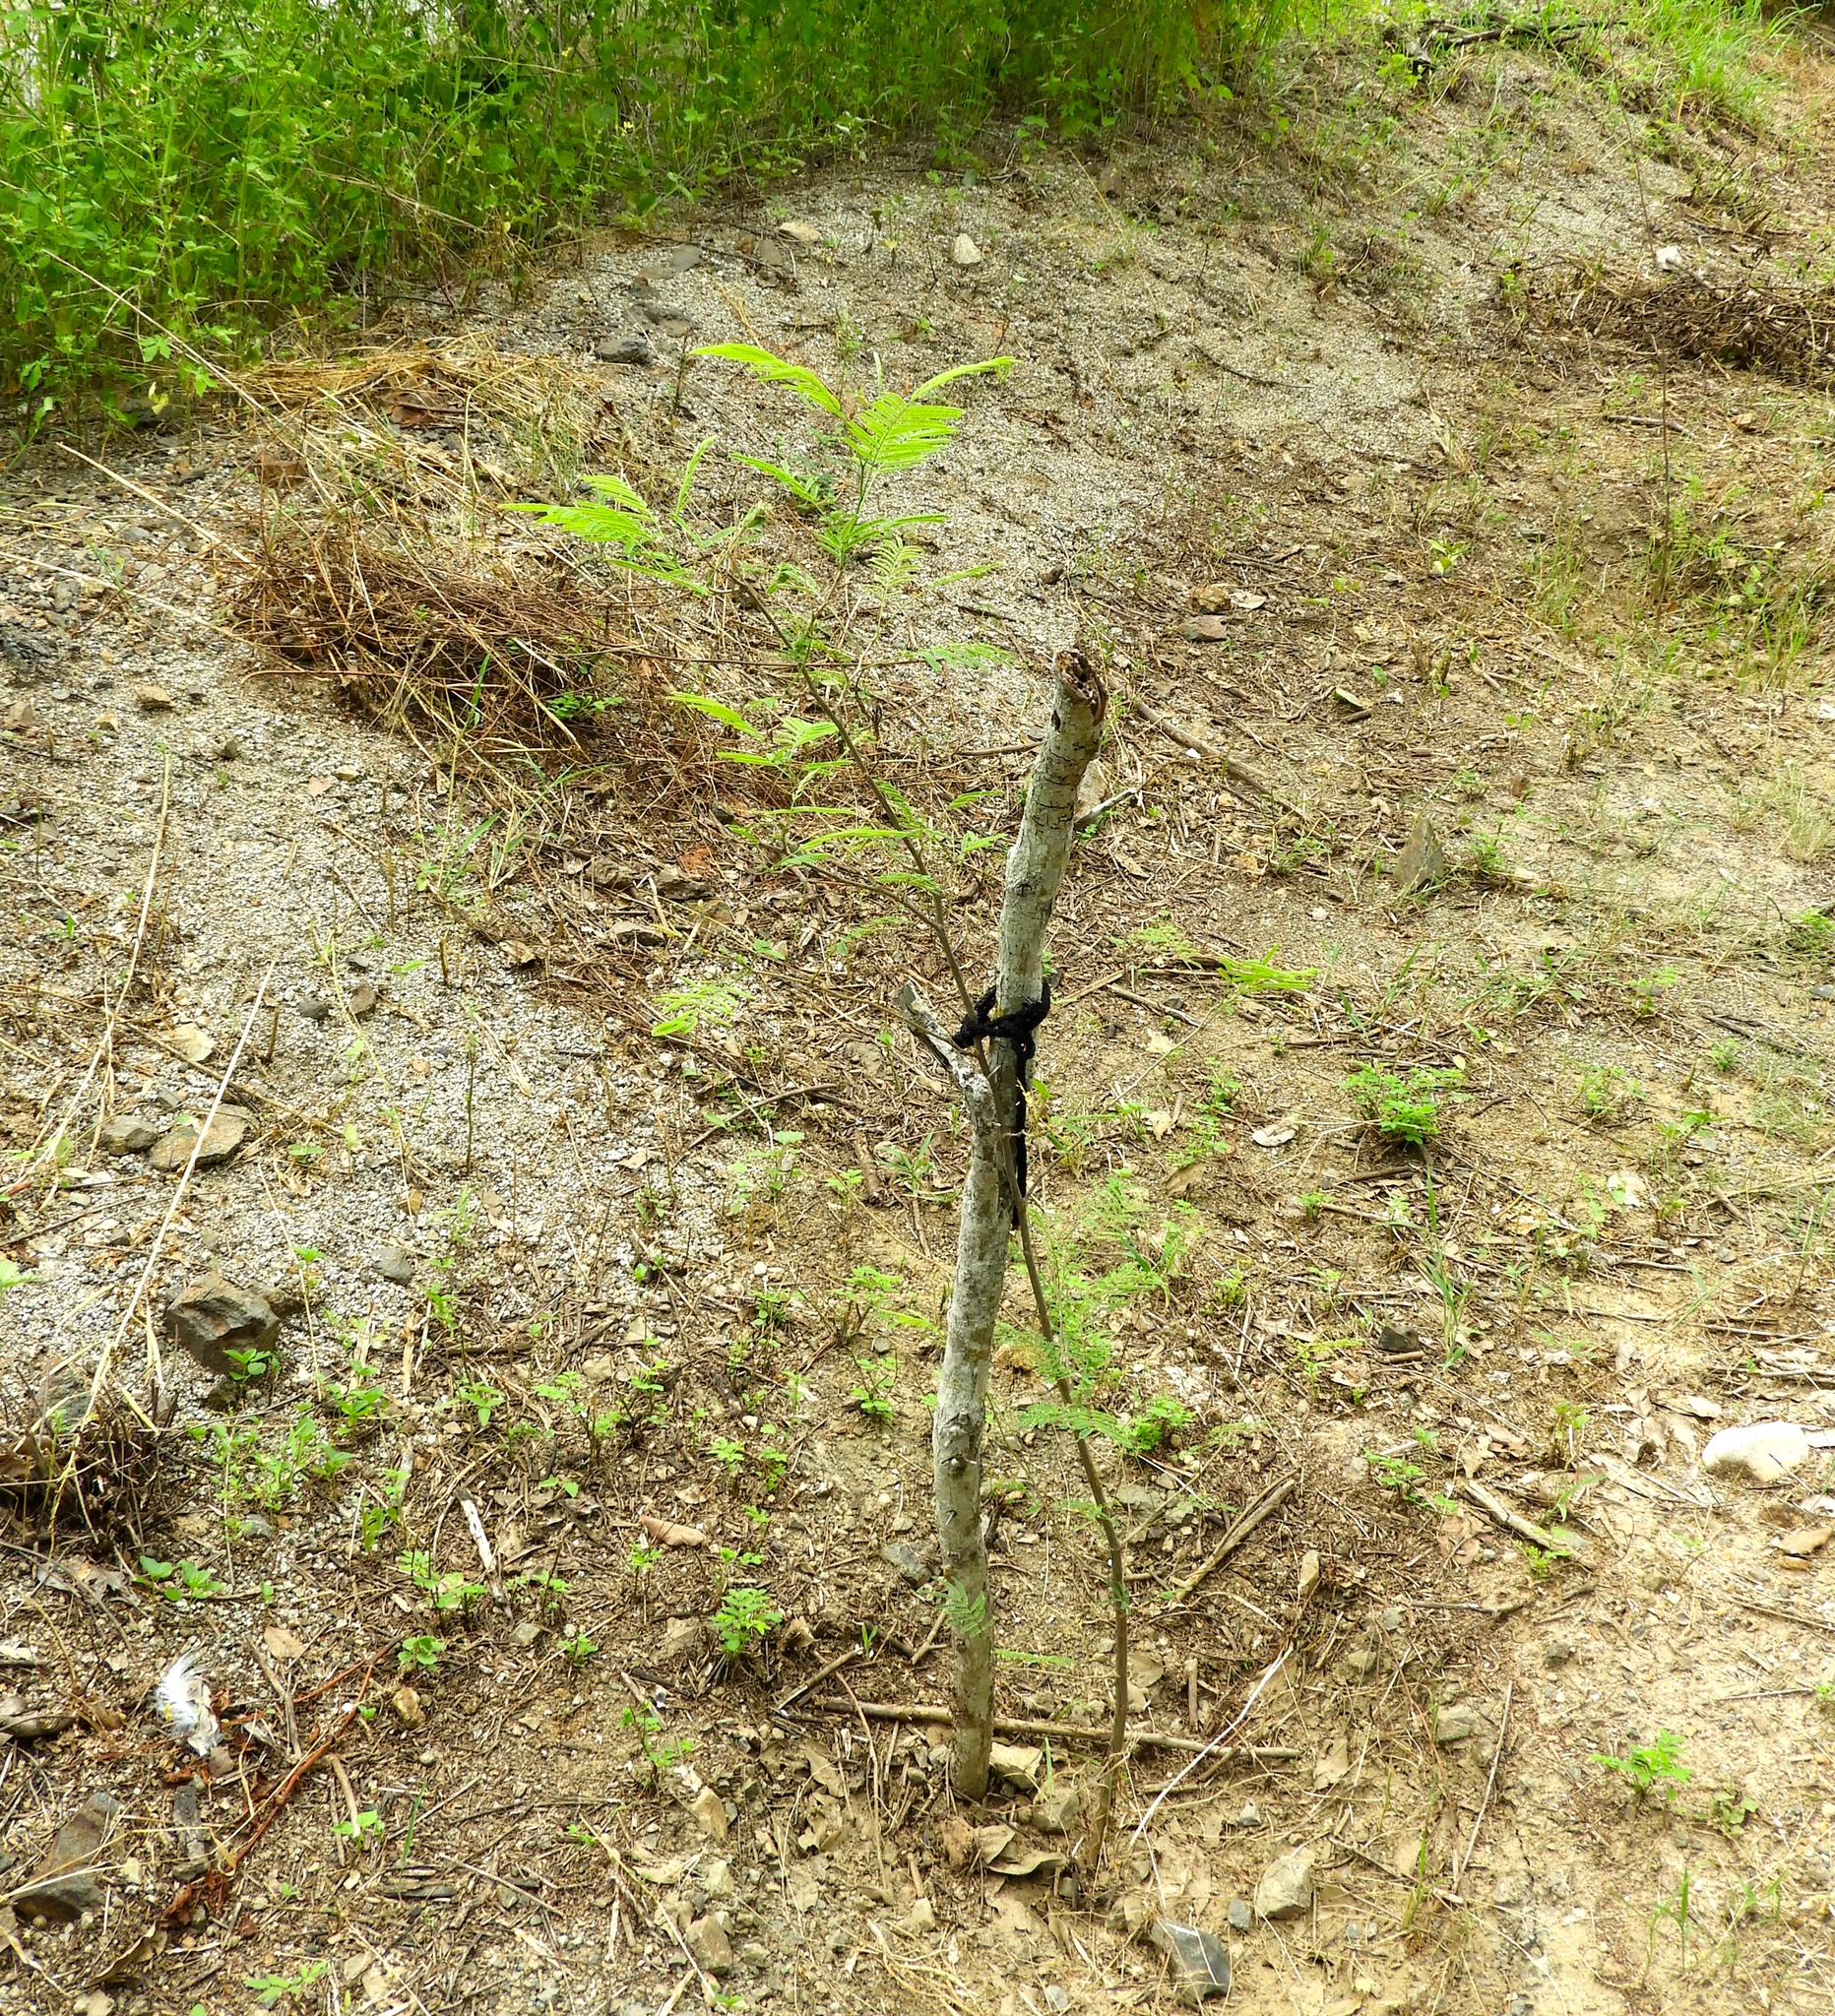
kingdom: Plantae
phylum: Tracheophyta
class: Magnoliopsida
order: Fabales
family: Fabaceae
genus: Leucaena
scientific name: Leucaena leucocephala
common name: White leadtree
